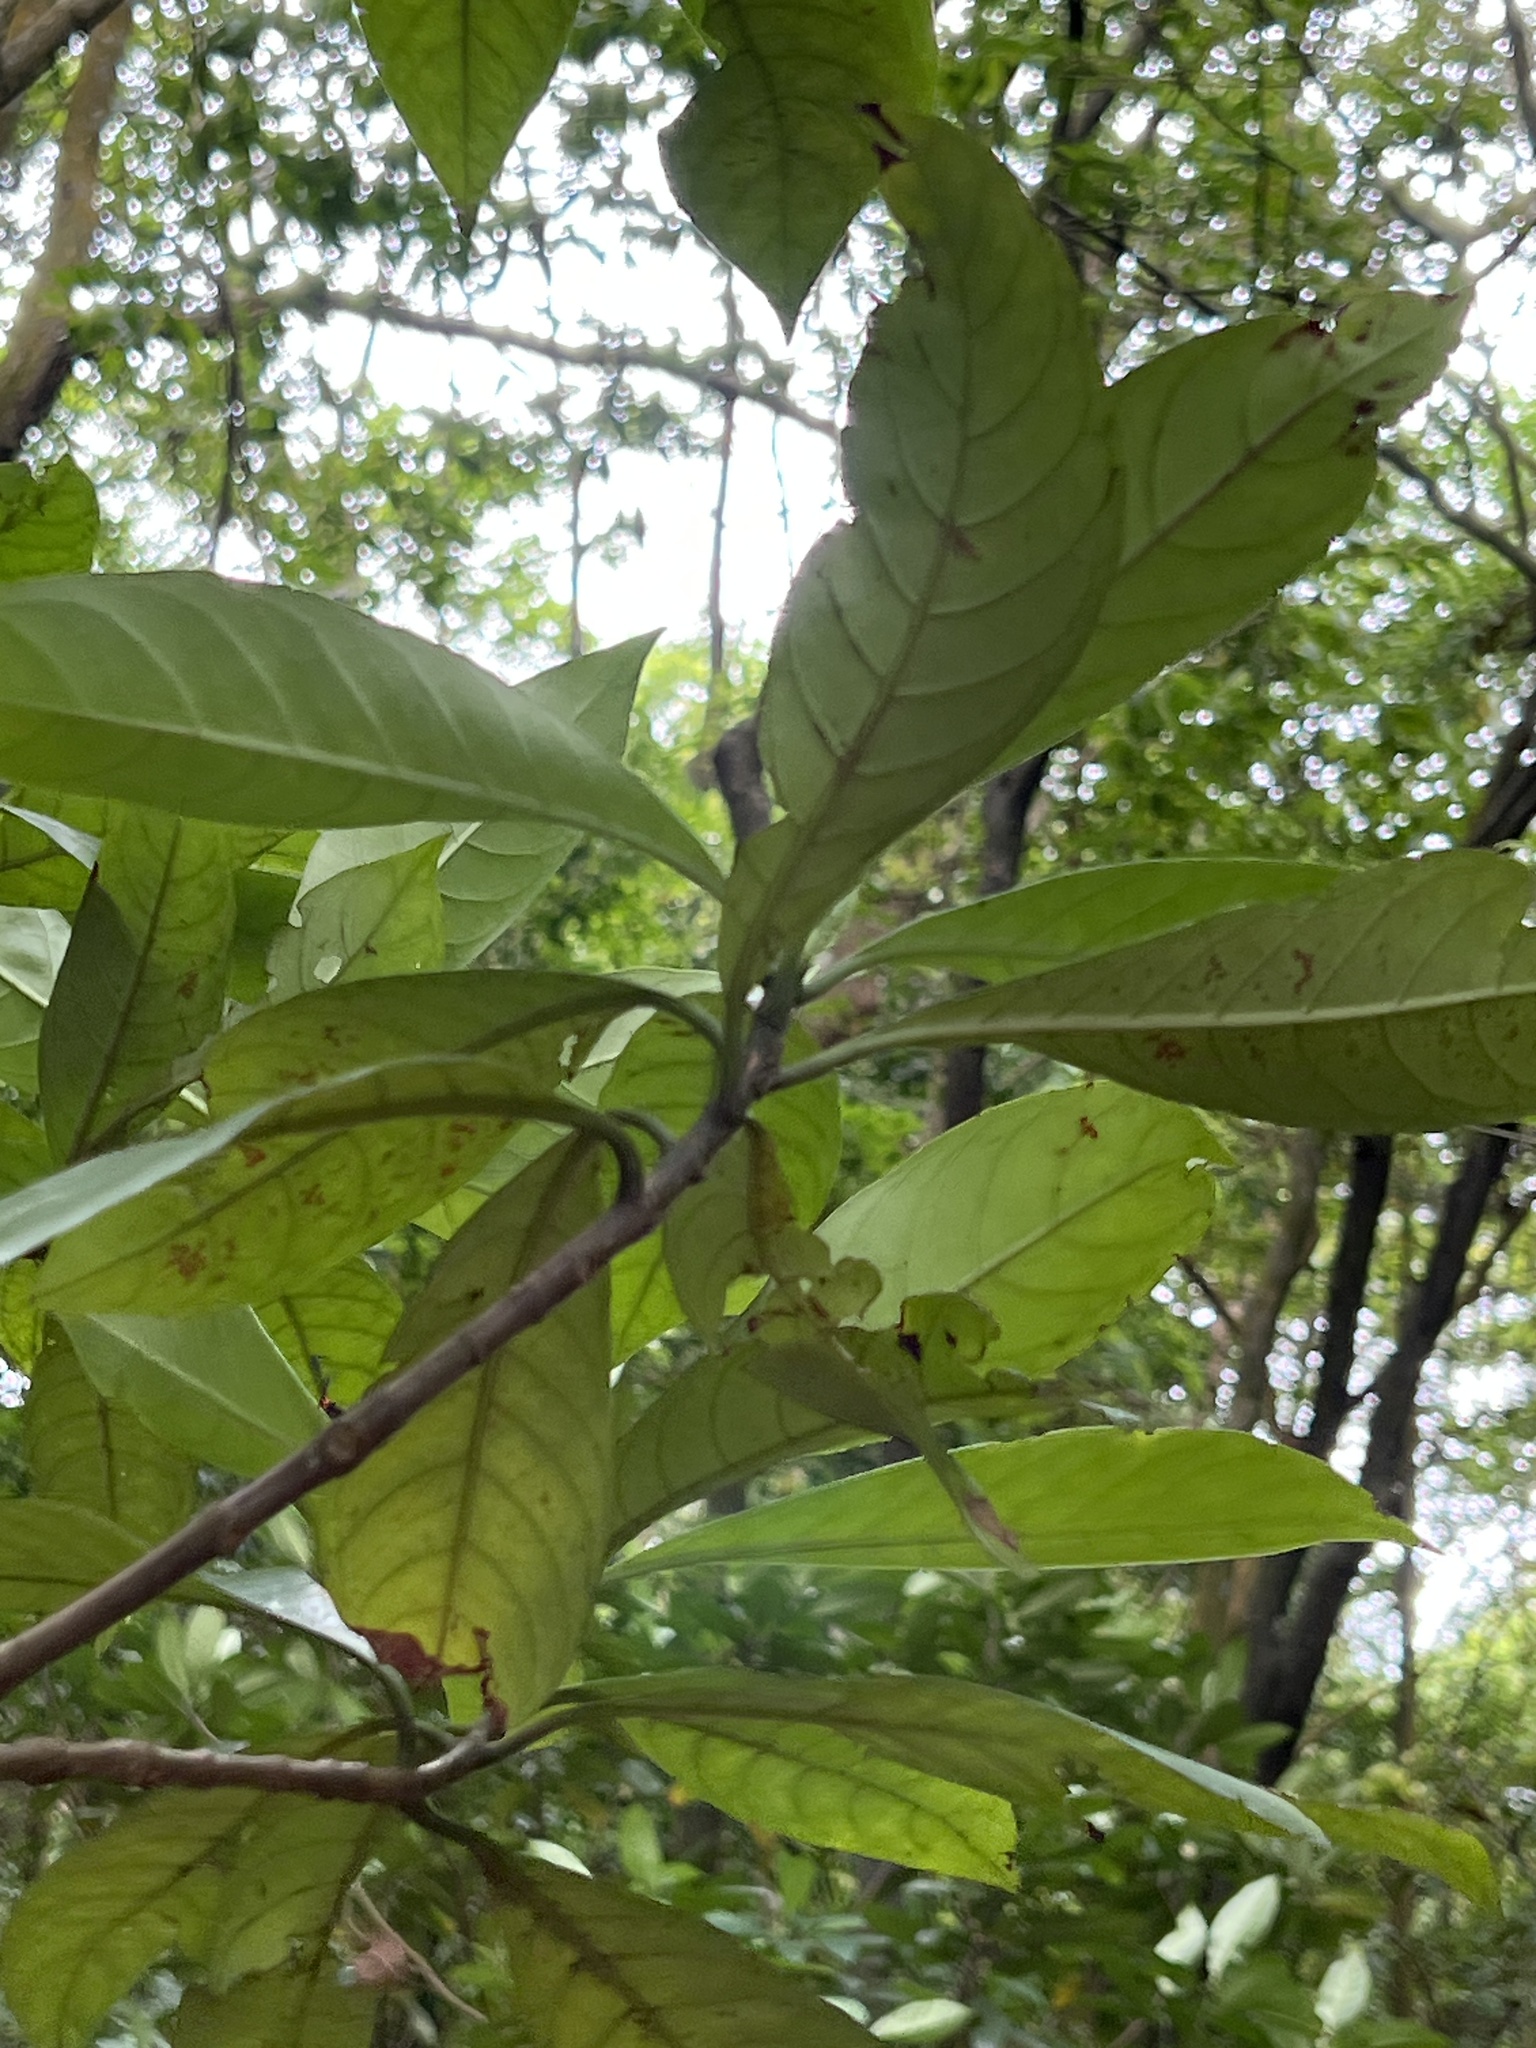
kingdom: Plantae
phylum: Tracheophyta
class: Magnoliopsida
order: Gentianales
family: Rubiaceae
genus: Psychotria
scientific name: Psychotria asiatica
